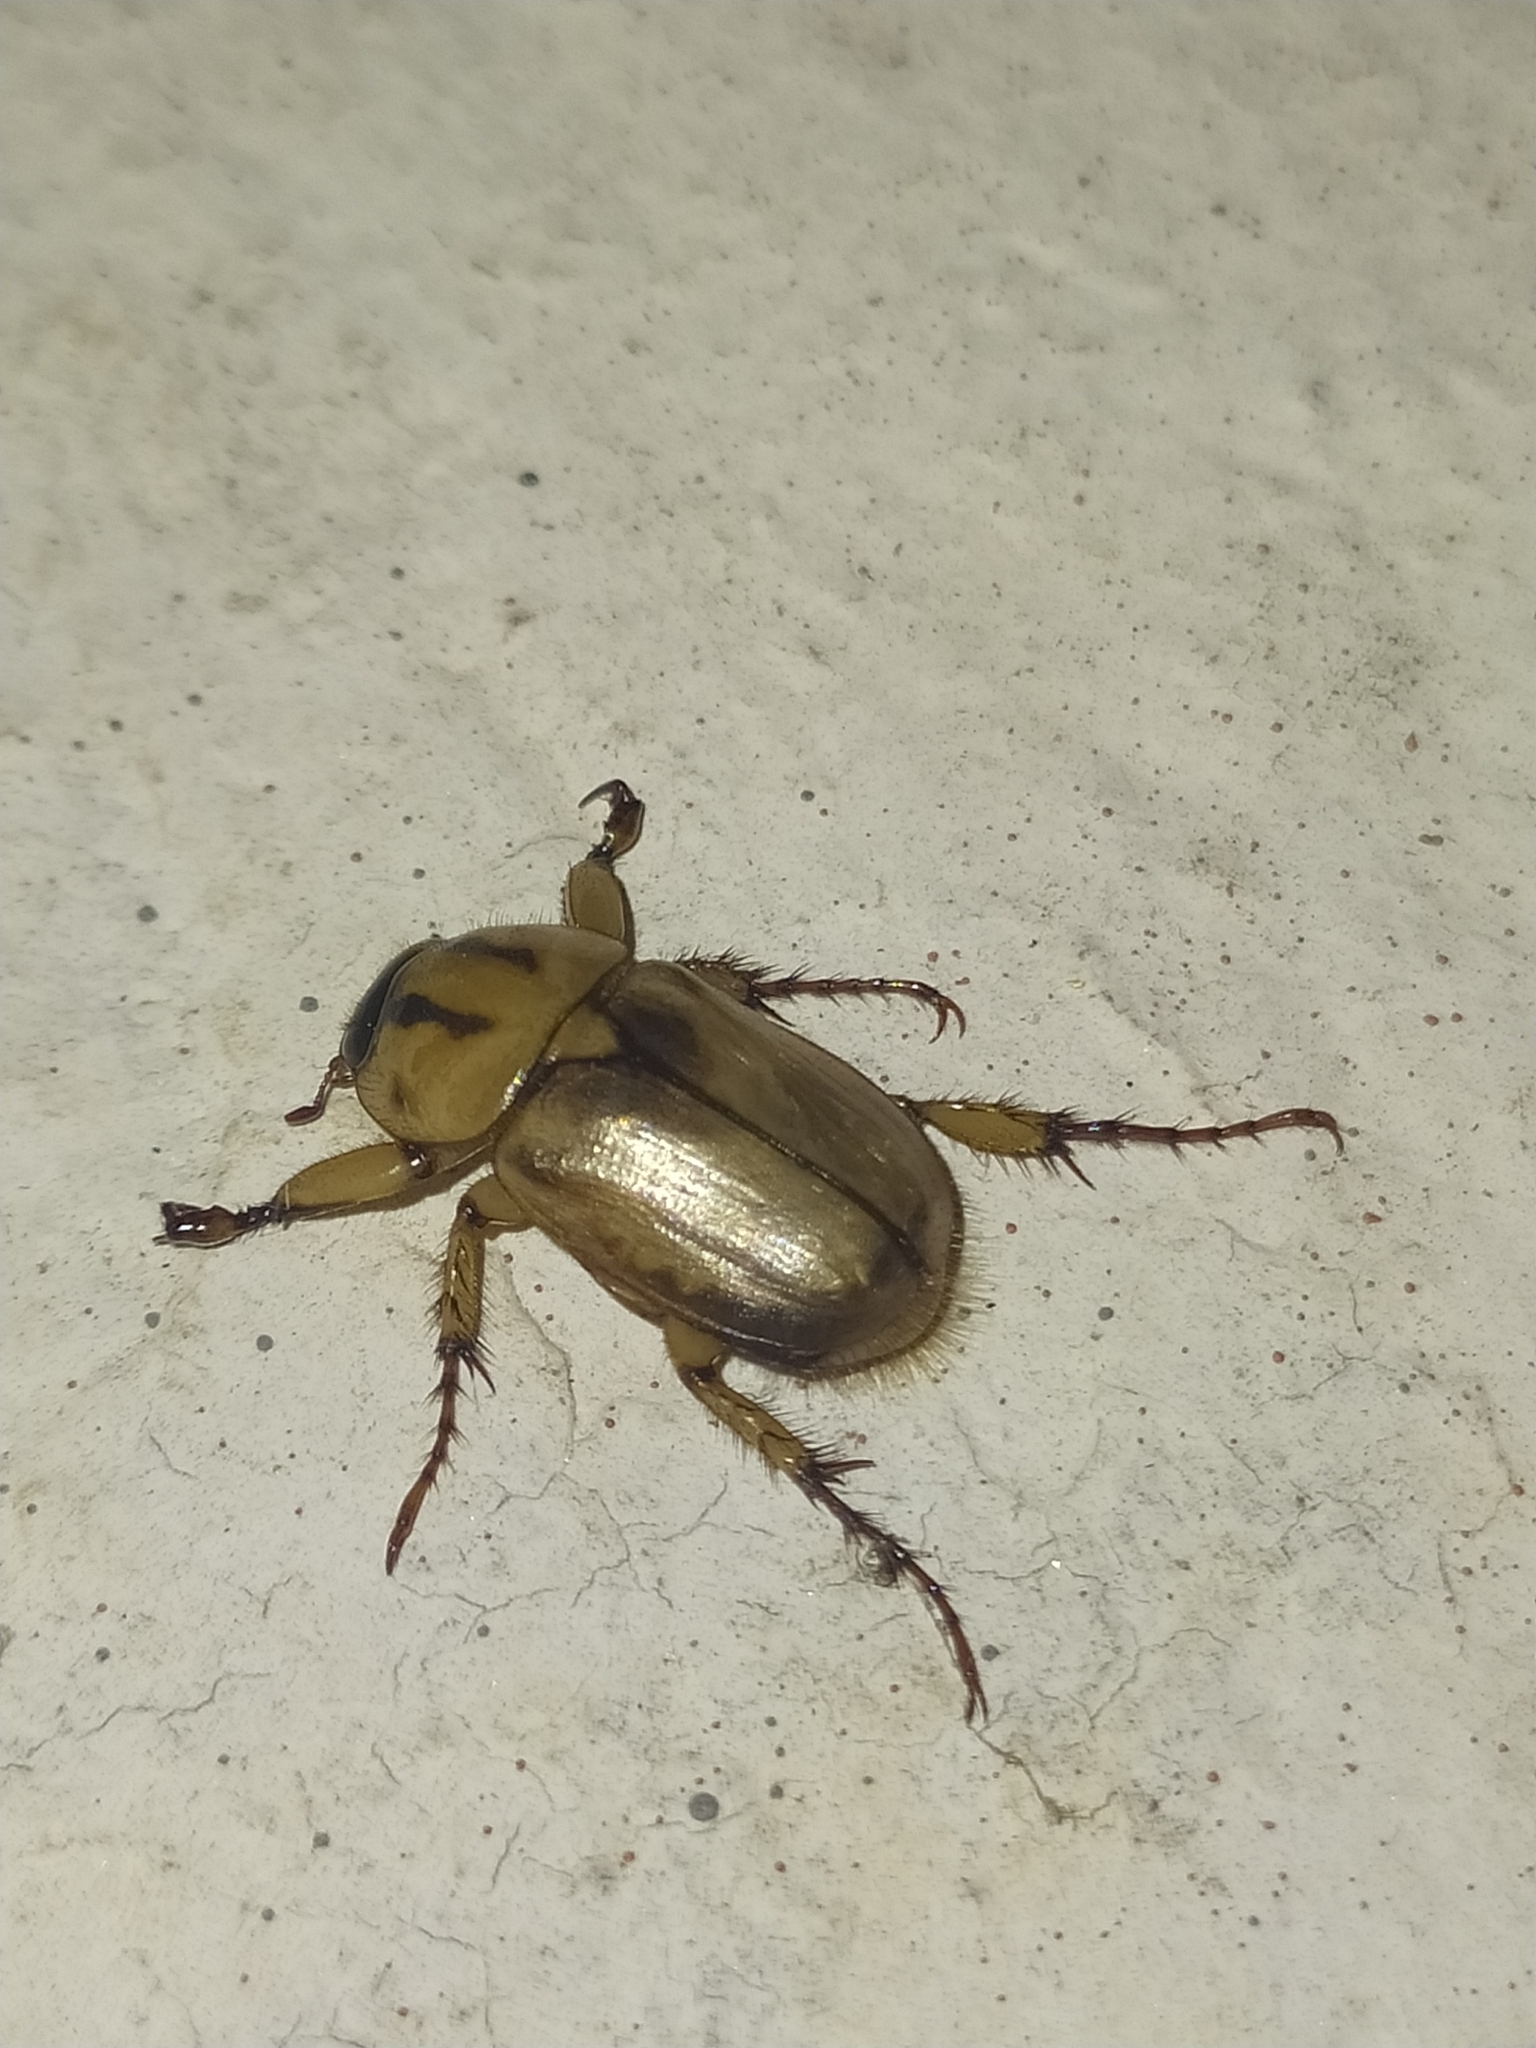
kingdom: Animalia
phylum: Arthropoda
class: Insecta
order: Coleoptera
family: Scarabaeidae
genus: Cyclocephala
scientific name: Cyclocephala amazona
